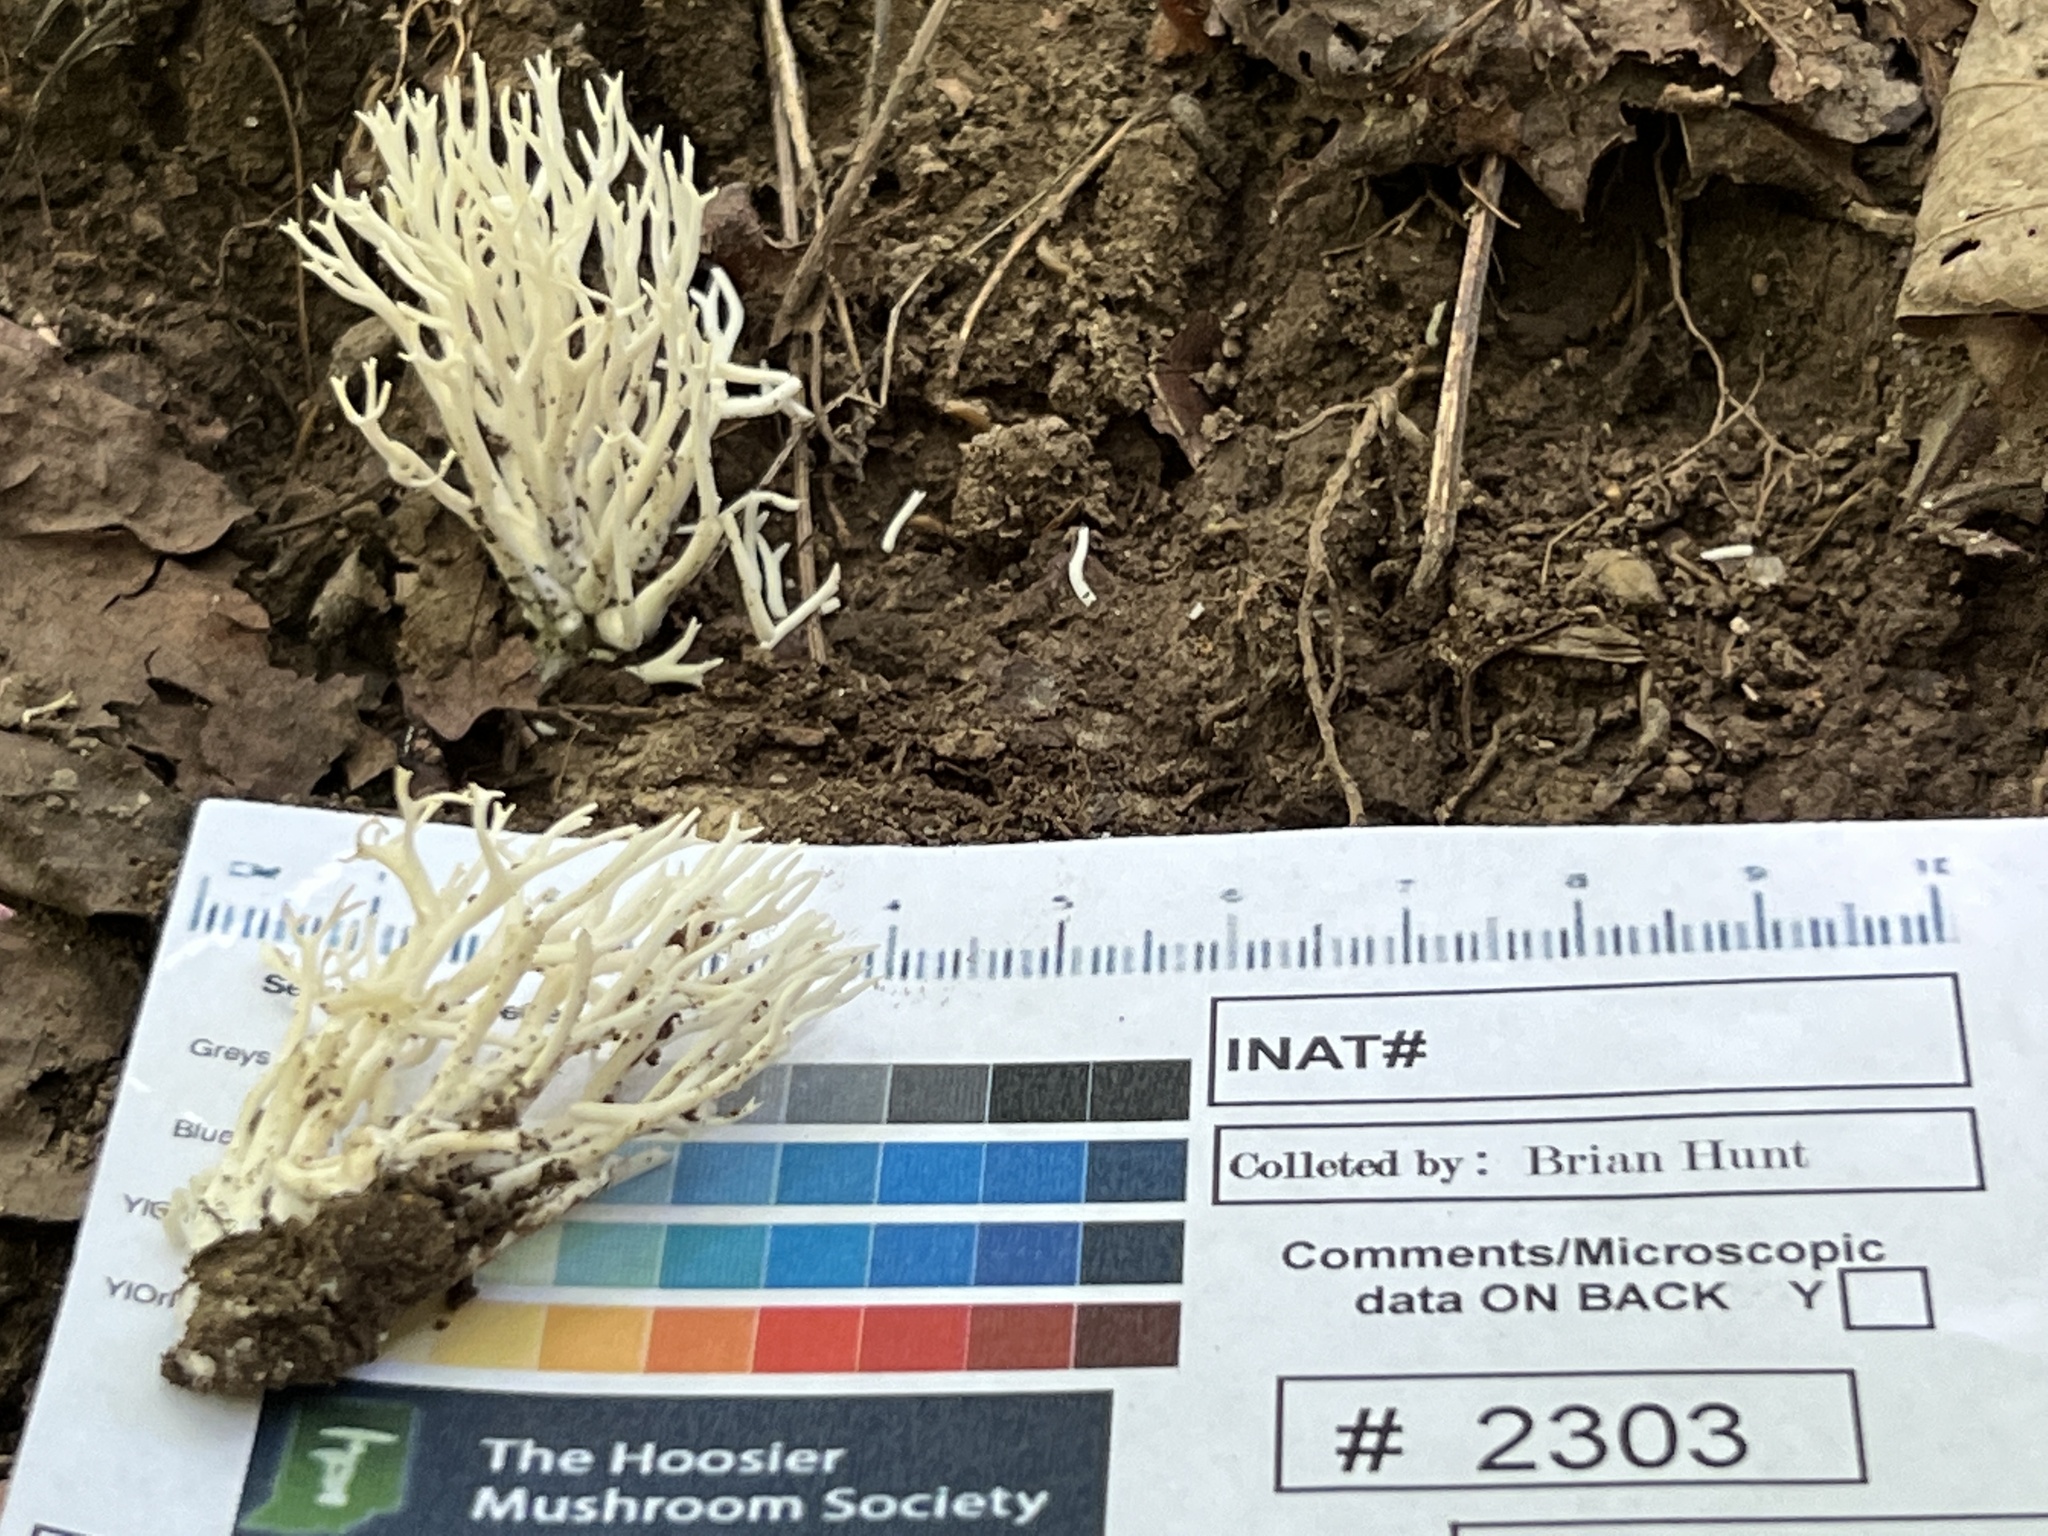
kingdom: Fungi
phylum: Basidiomycota
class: Agaricomycetes
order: Agaricales
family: Clavariaceae
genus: Ramariopsis
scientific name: Ramariopsis kunzei
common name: Ivory coral
